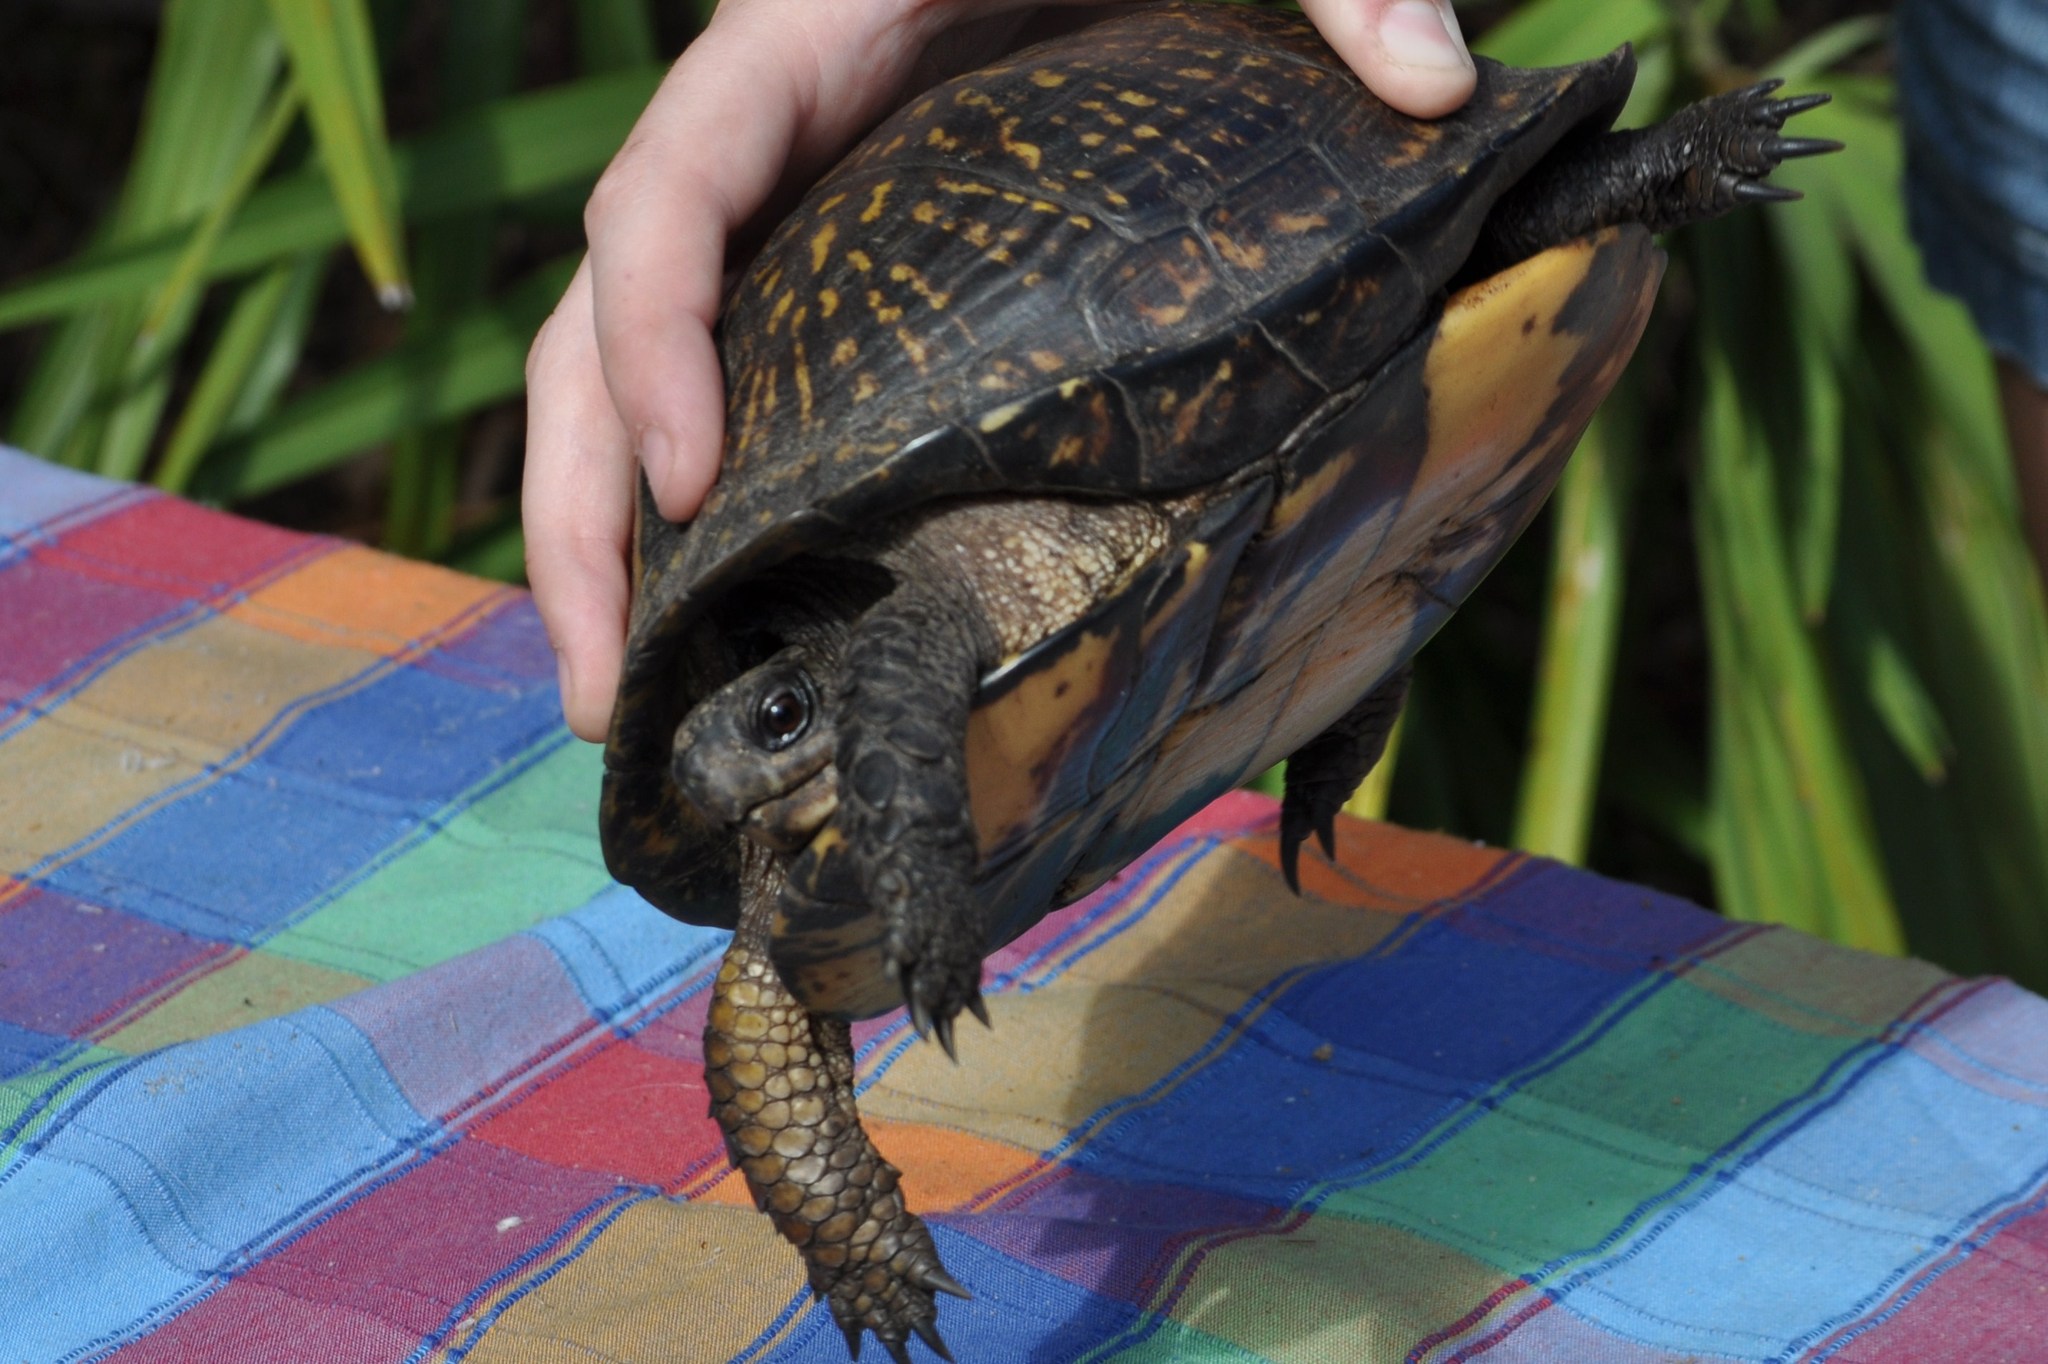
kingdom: Animalia
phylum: Chordata
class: Testudines
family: Emydidae
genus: Terrapene
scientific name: Terrapene carolina
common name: Common box turtle
